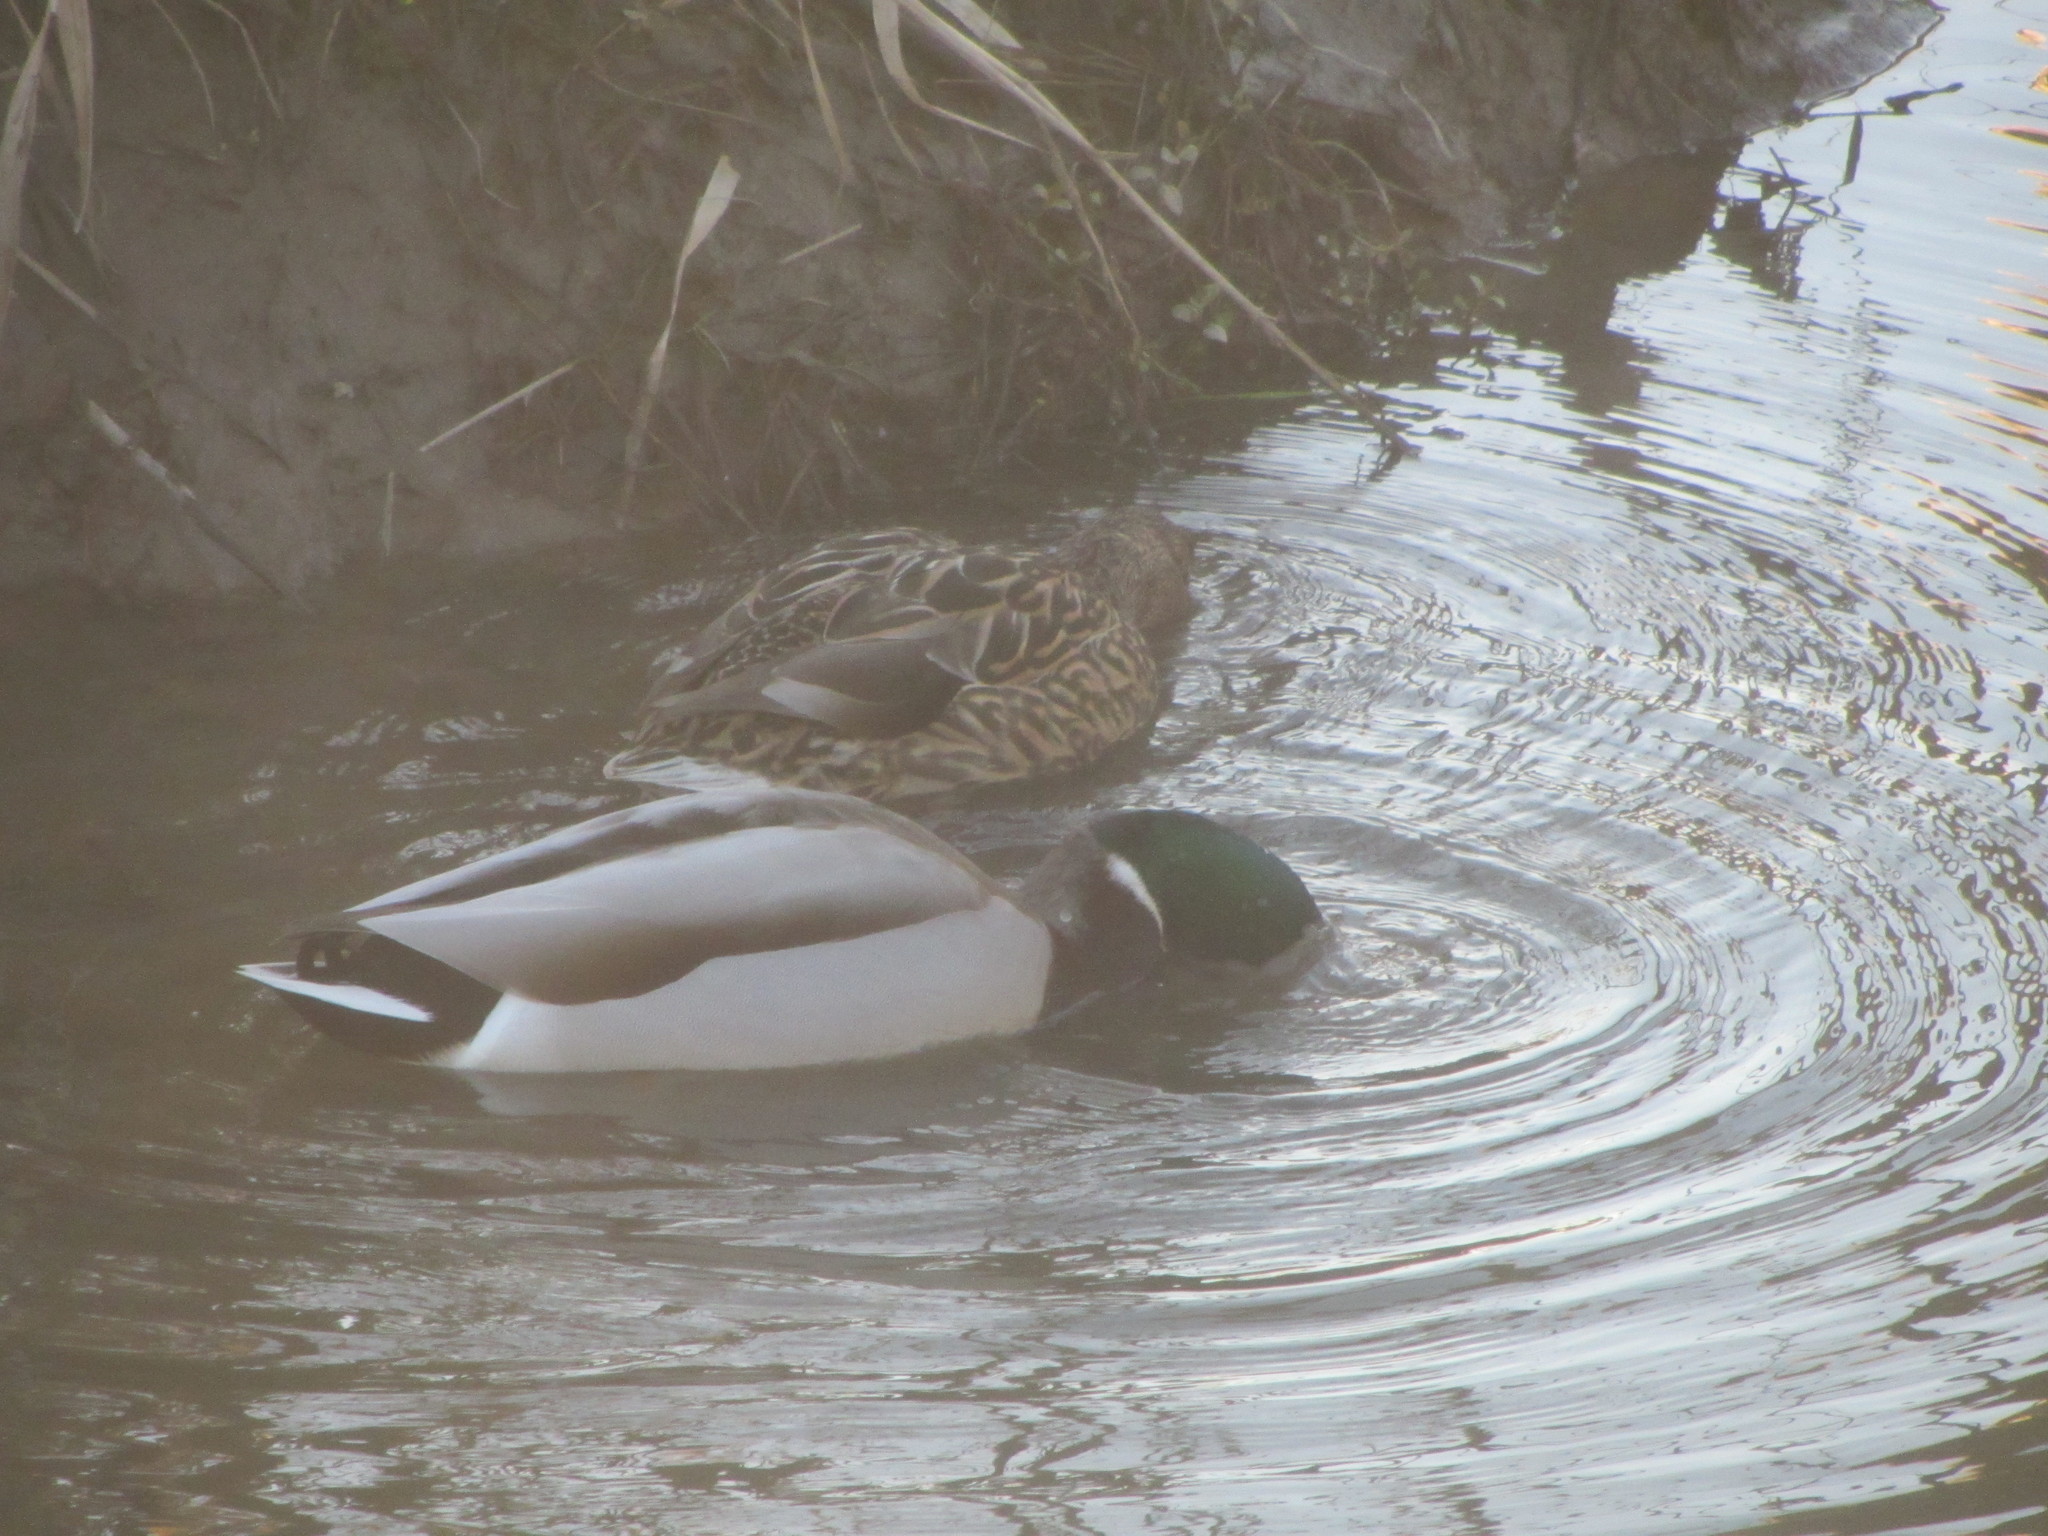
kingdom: Animalia
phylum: Chordata
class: Aves
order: Anseriformes
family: Anatidae
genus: Anas
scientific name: Anas platyrhynchos
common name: Mallard
